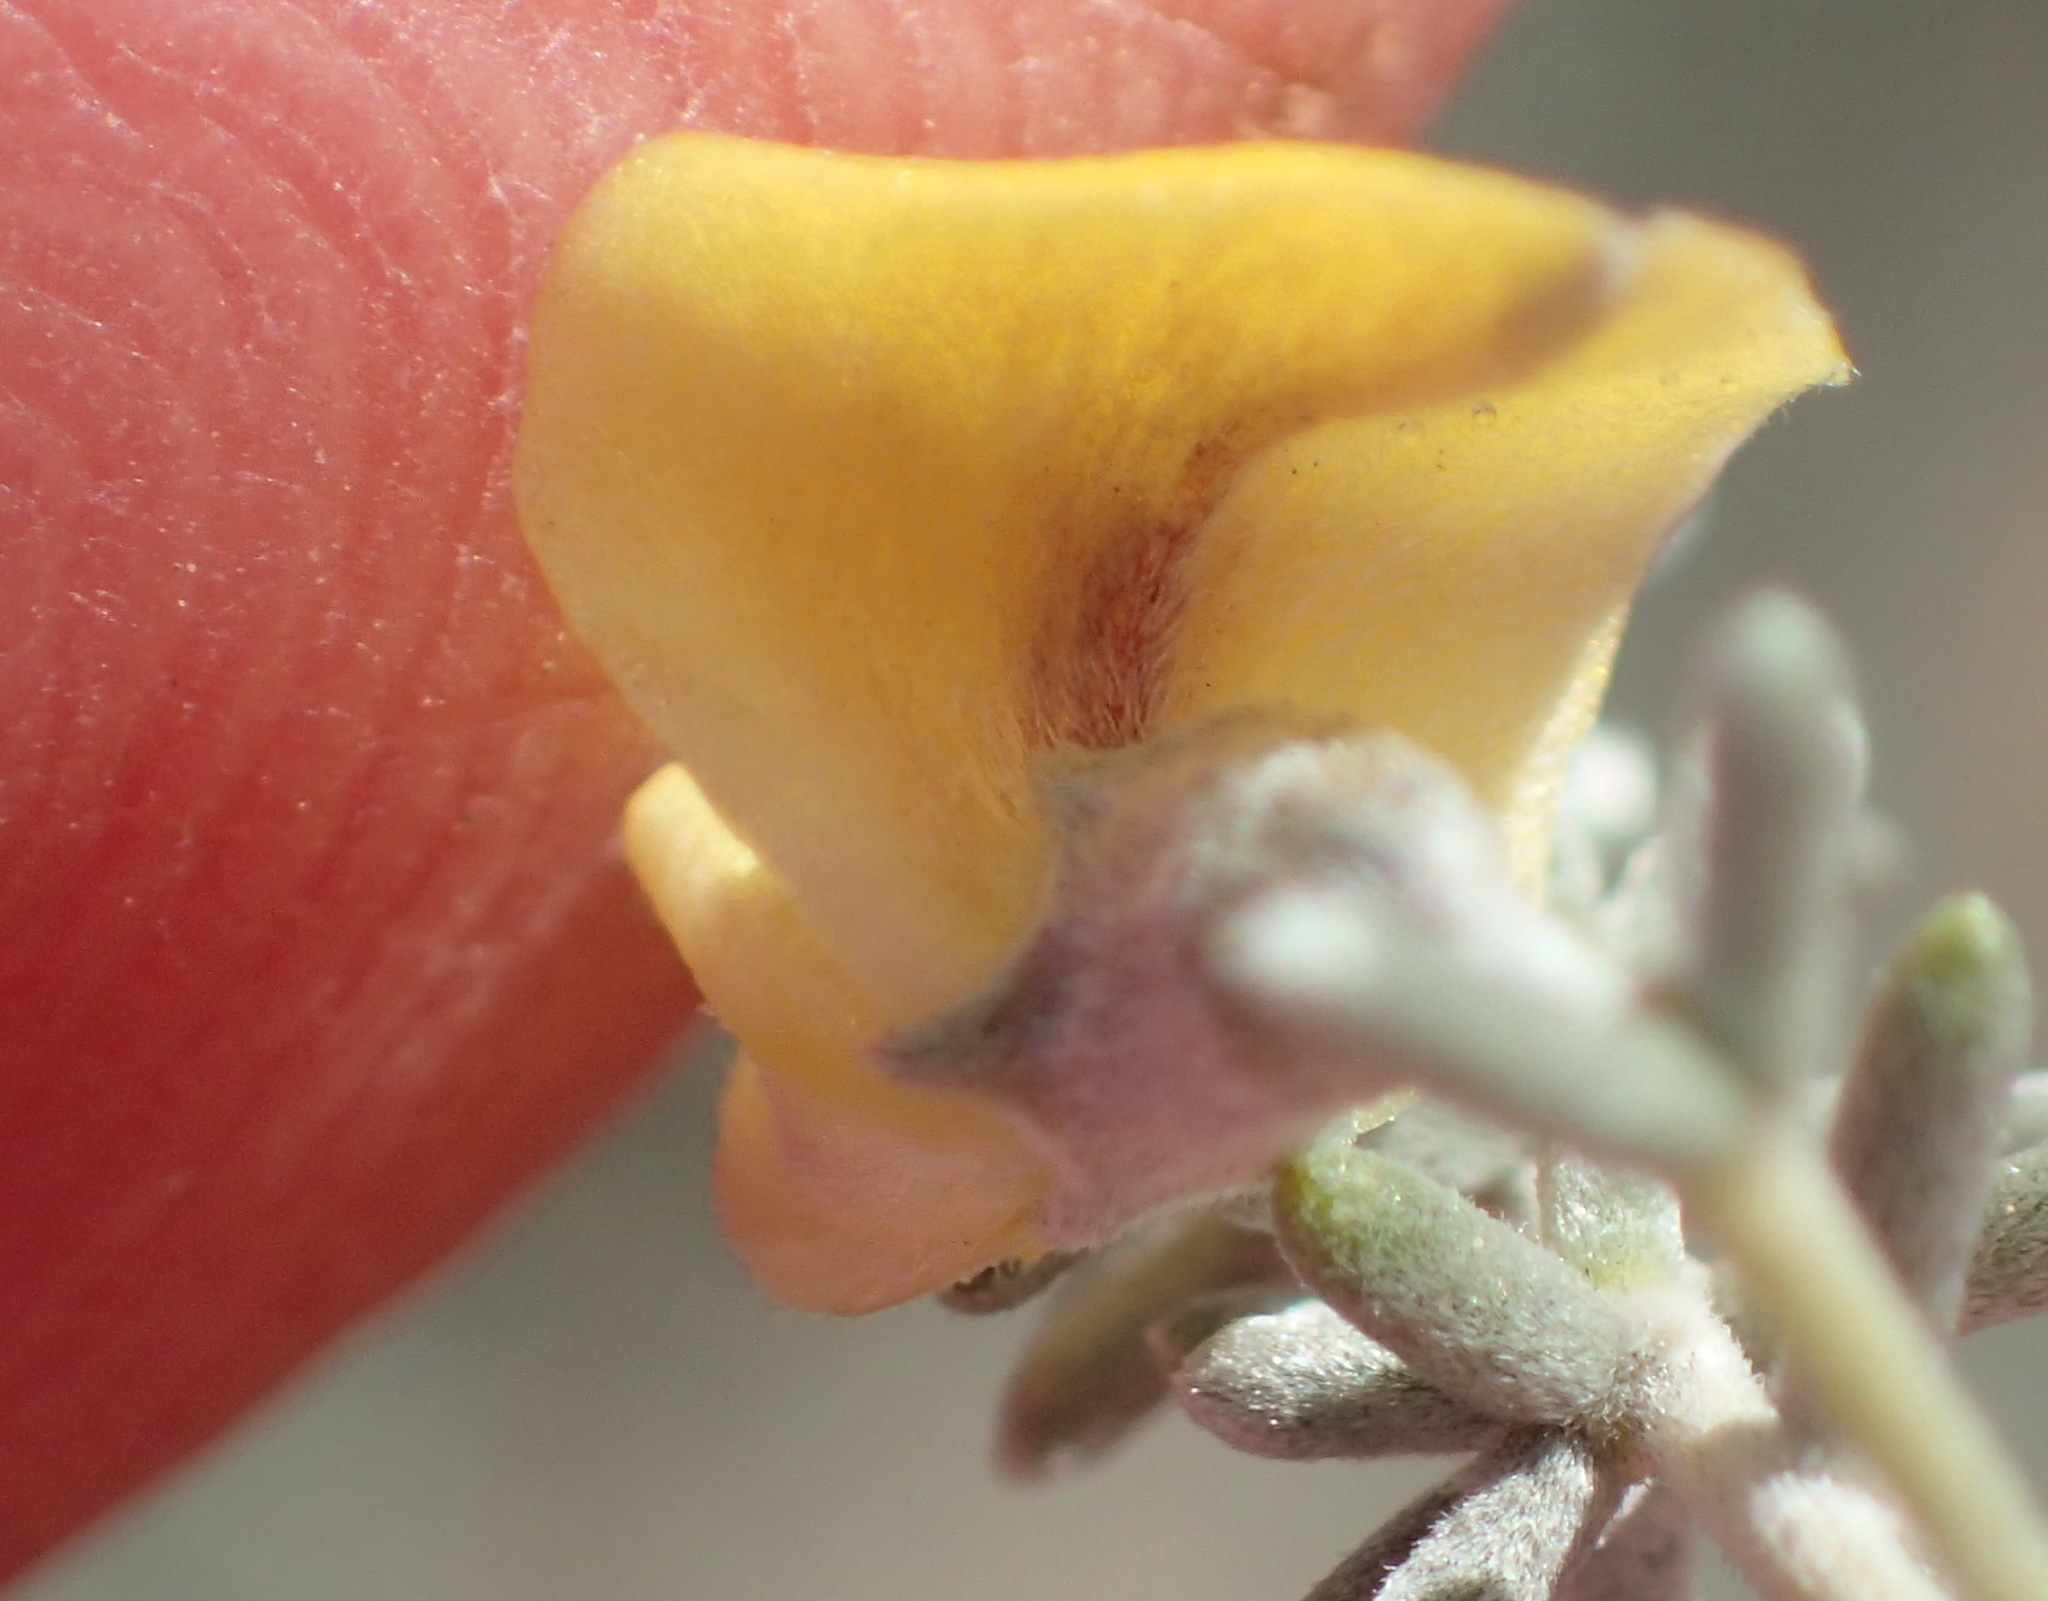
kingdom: Plantae
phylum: Tracheophyta
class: Magnoliopsida
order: Fabales
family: Fabaceae
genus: Aspalathus
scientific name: Aspalathus pedunculata
